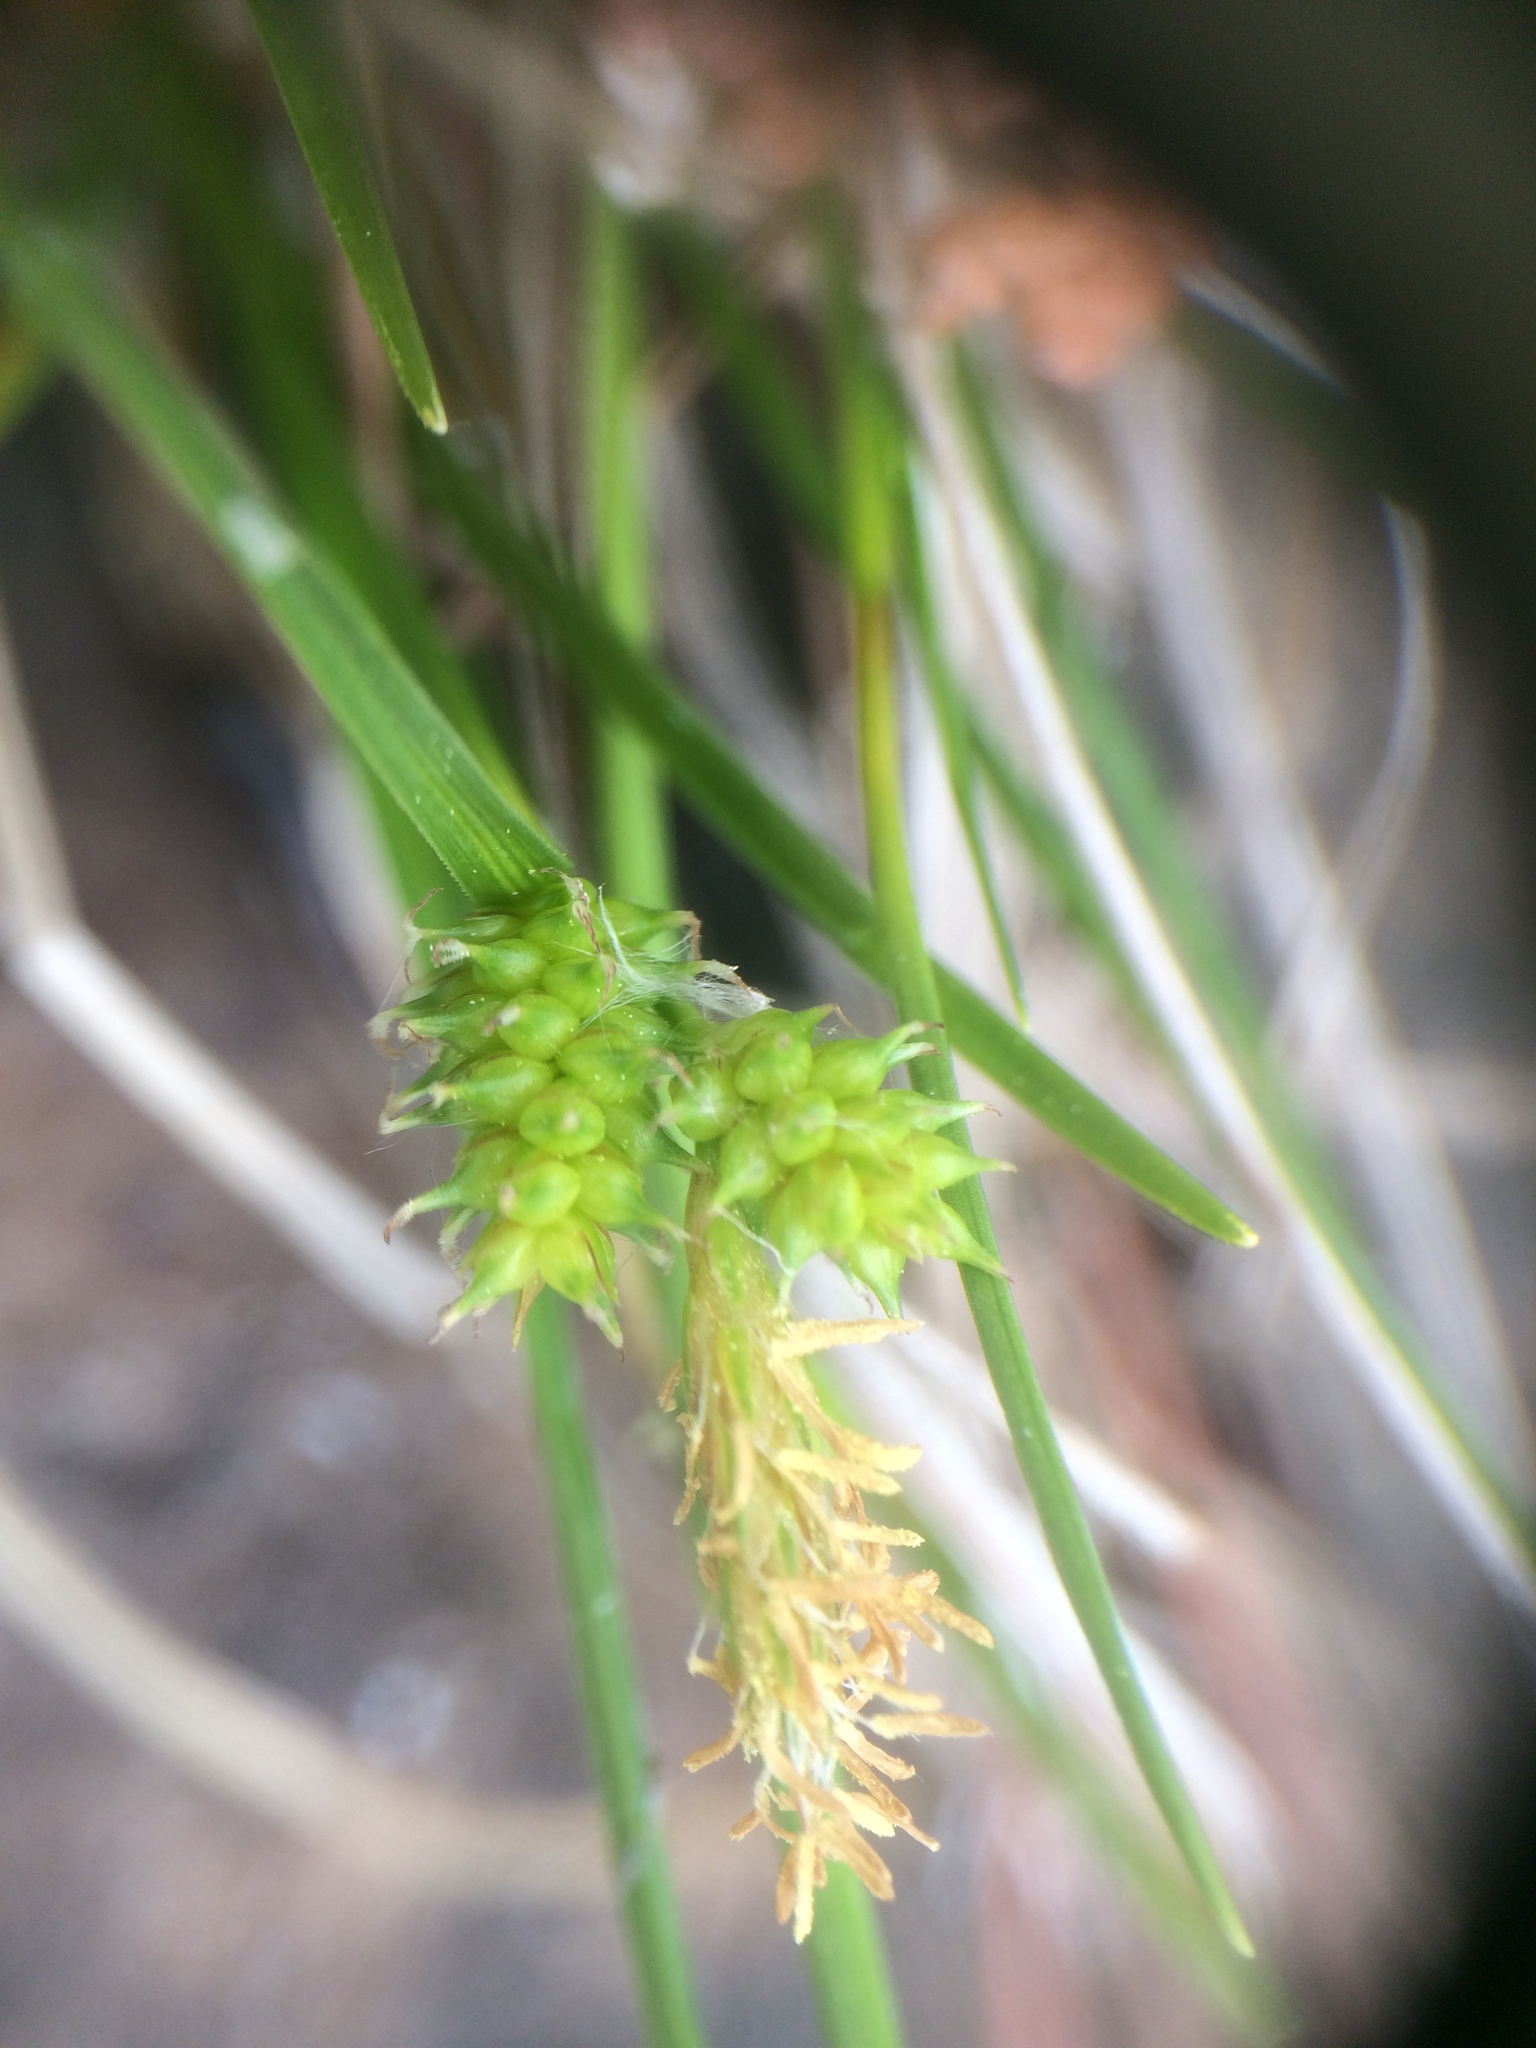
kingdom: Plantae
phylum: Tracheophyta
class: Liliopsida
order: Poales
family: Cyperaceae
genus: Carex
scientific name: Carex
